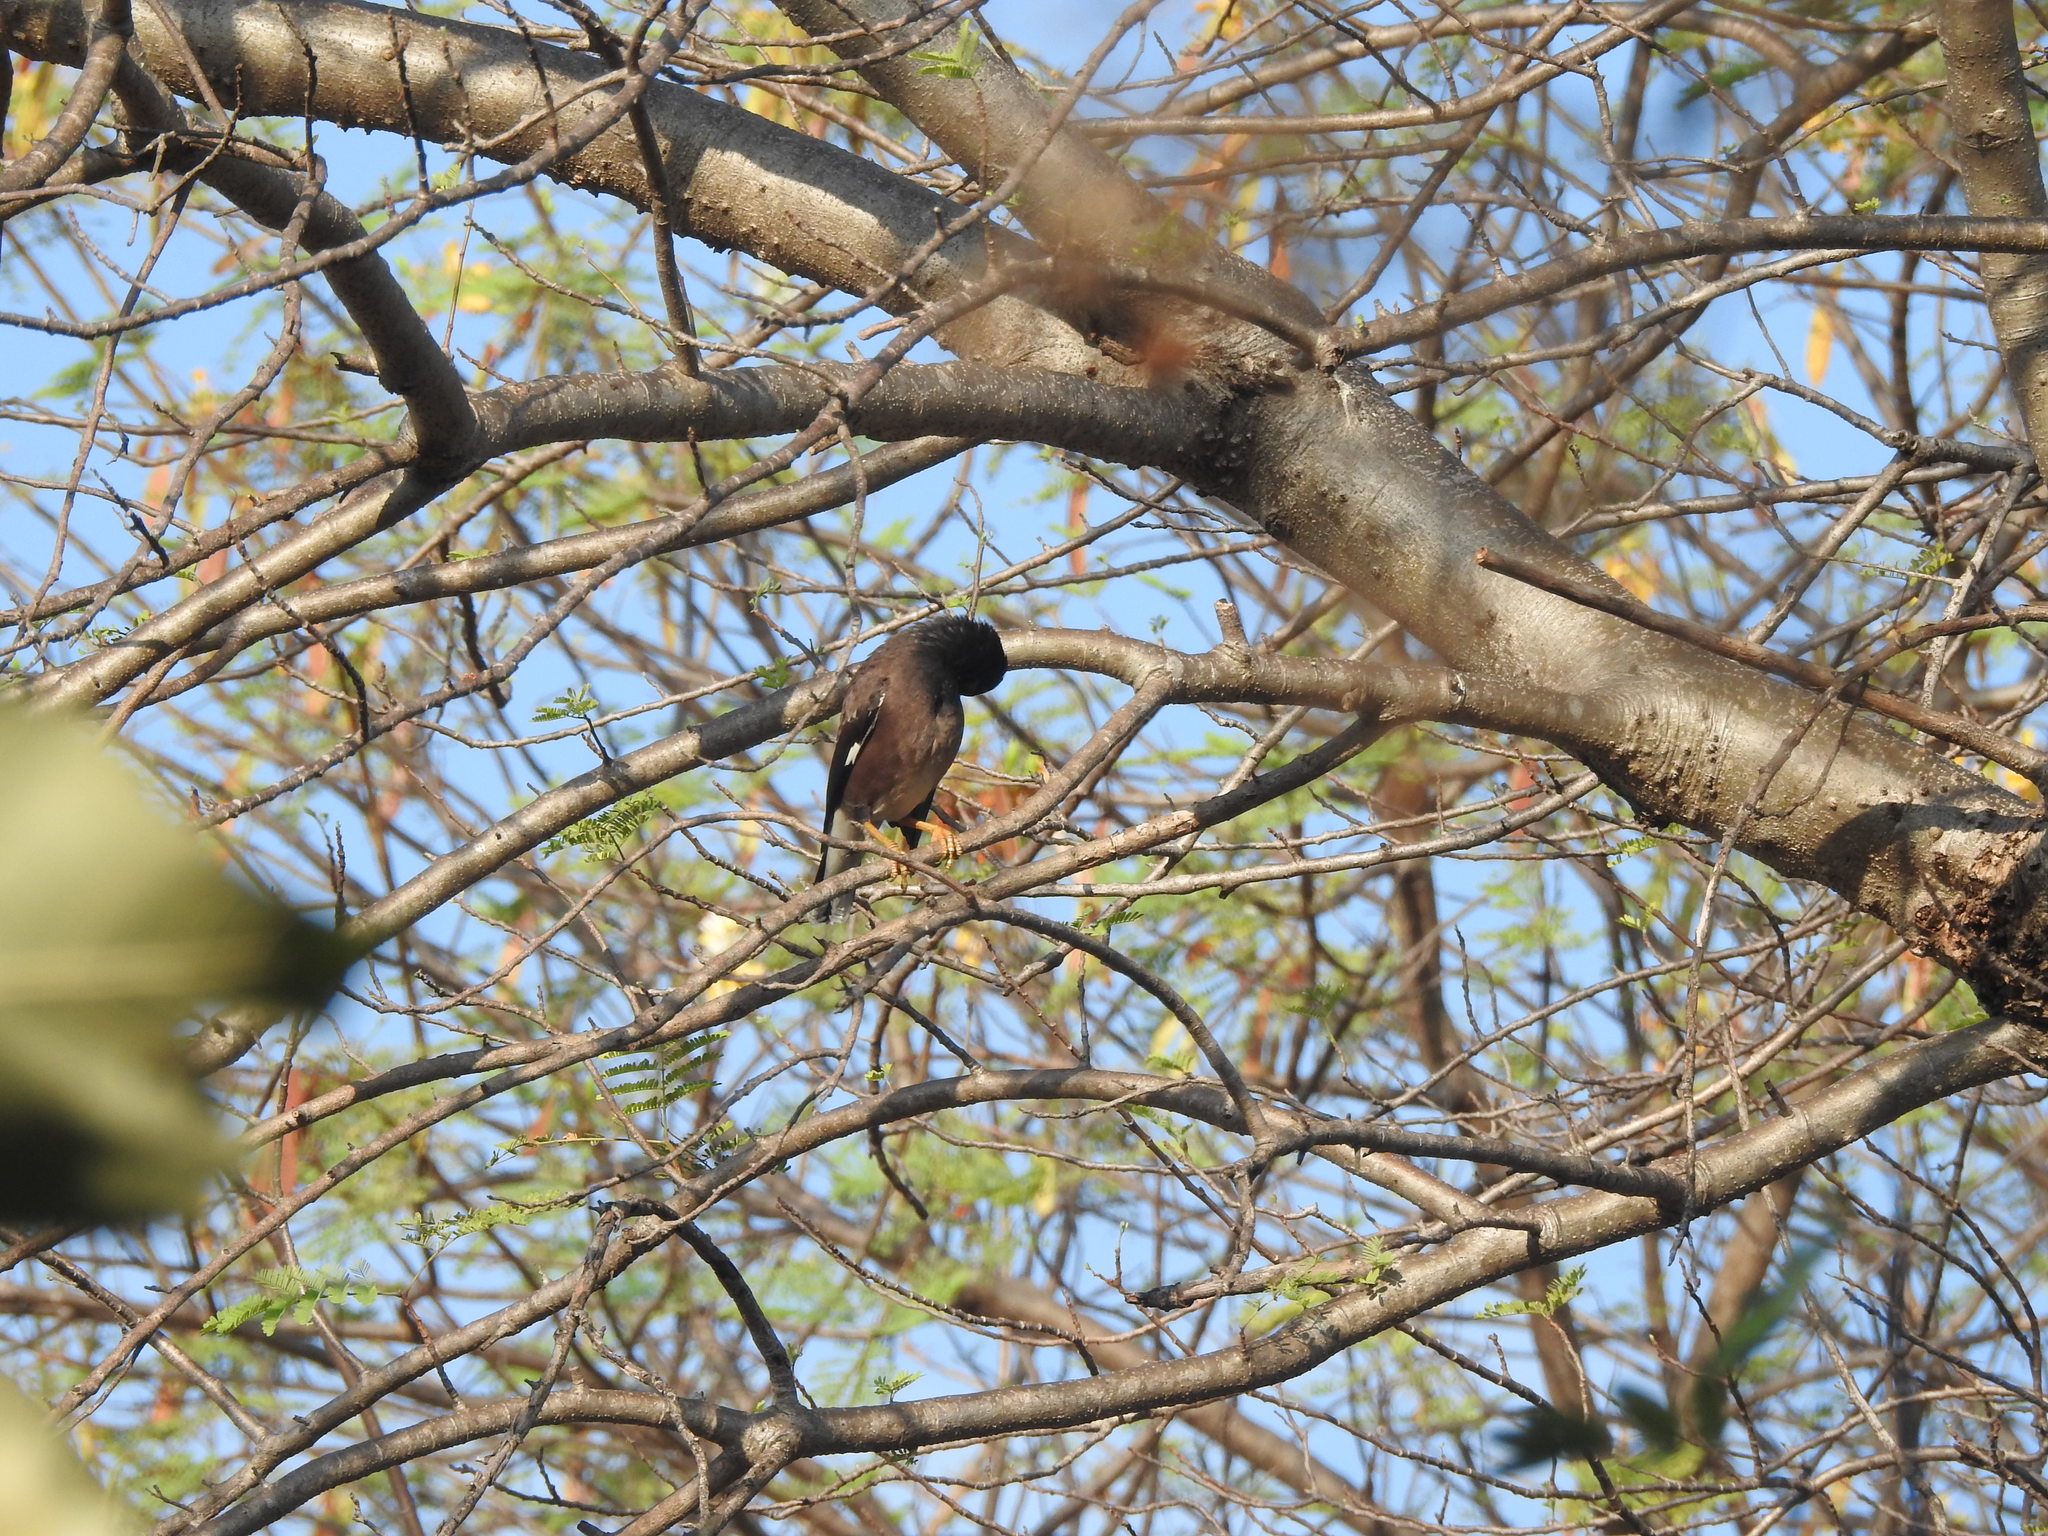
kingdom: Animalia
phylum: Chordata
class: Aves
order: Passeriformes
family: Sturnidae
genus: Acridotheres
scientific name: Acridotheres tristis
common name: Common myna
